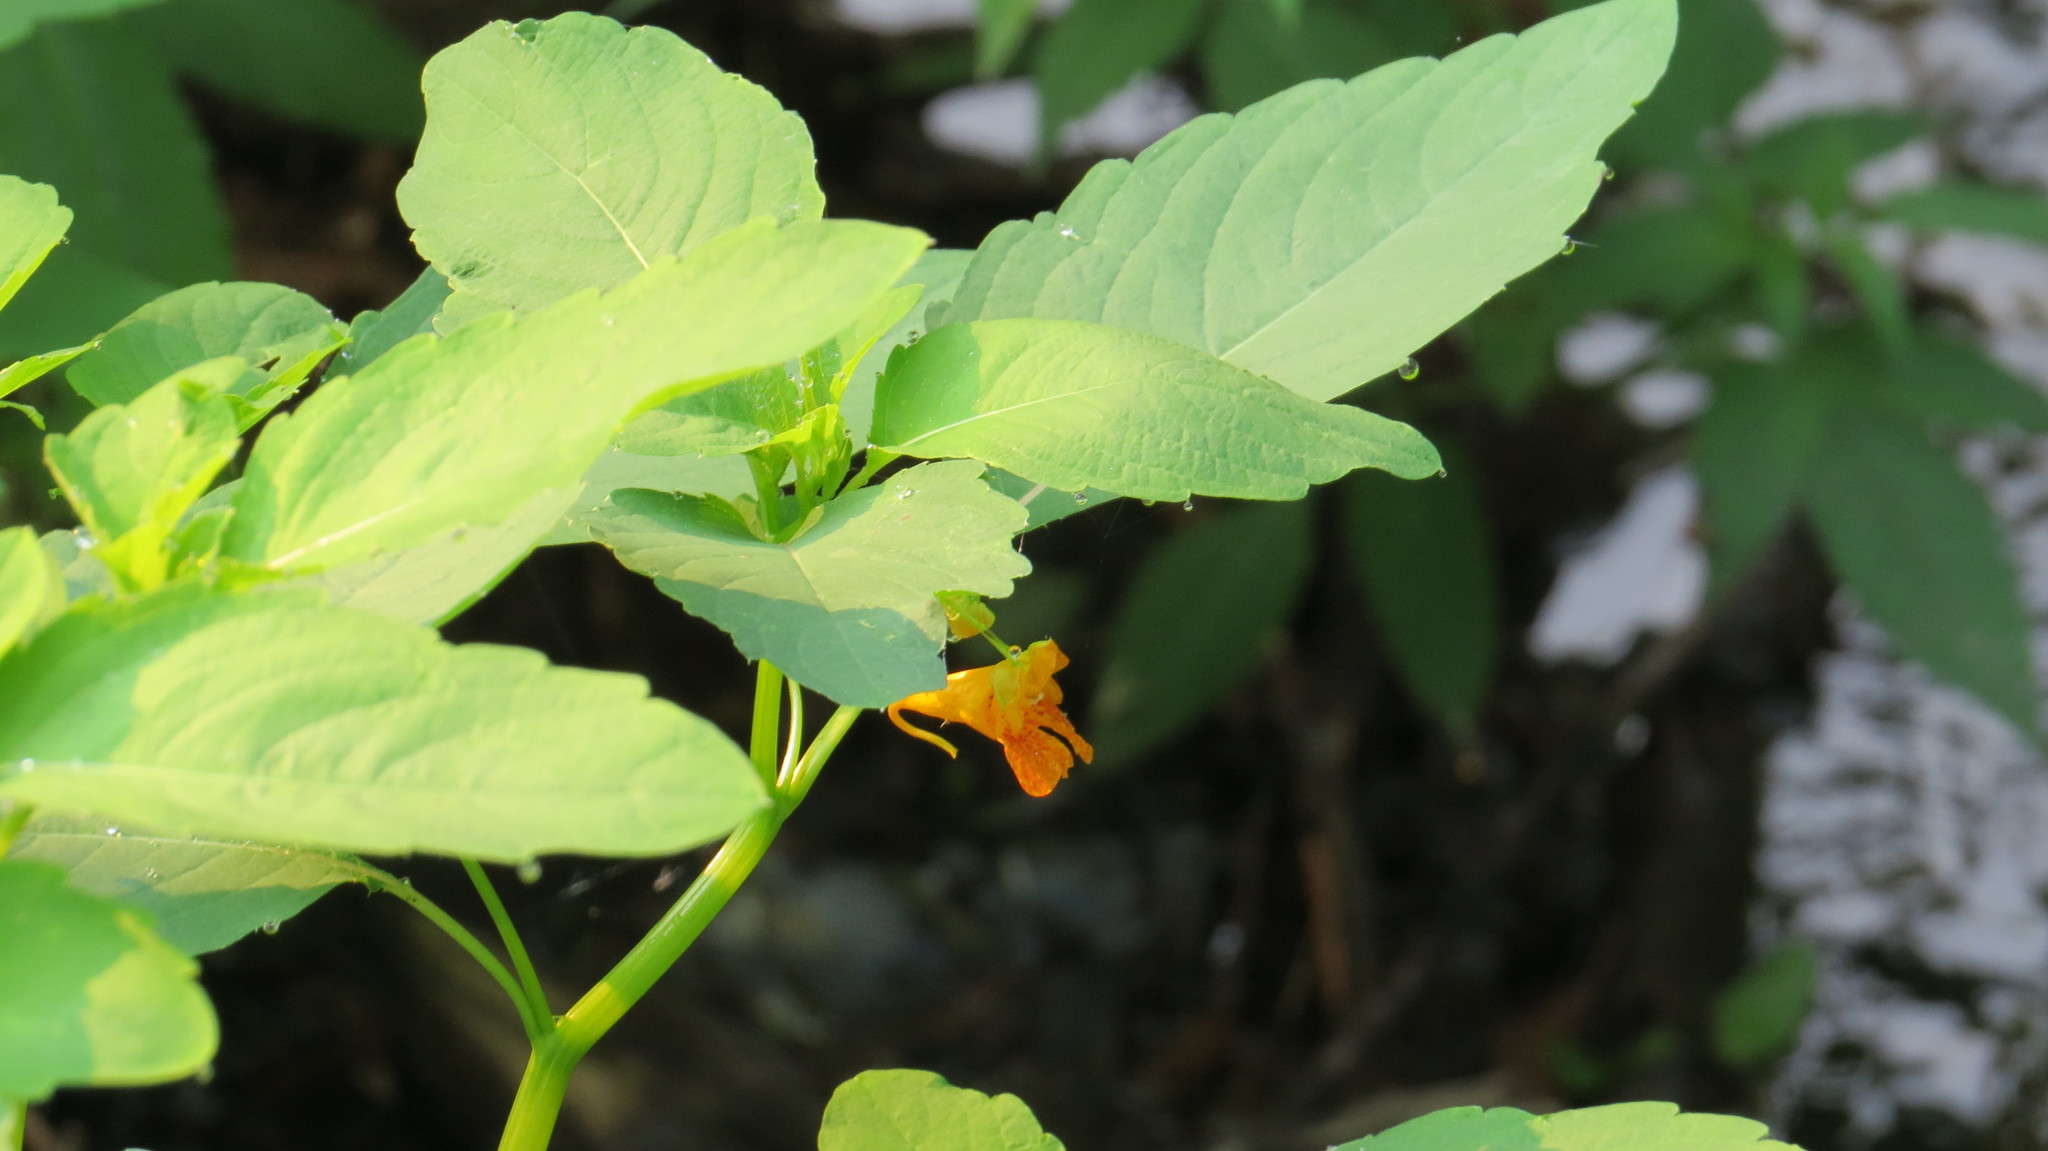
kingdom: Plantae
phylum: Tracheophyta
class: Magnoliopsida
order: Ericales
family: Balsaminaceae
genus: Impatiens
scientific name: Impatiens capensis
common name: Orange balsam
